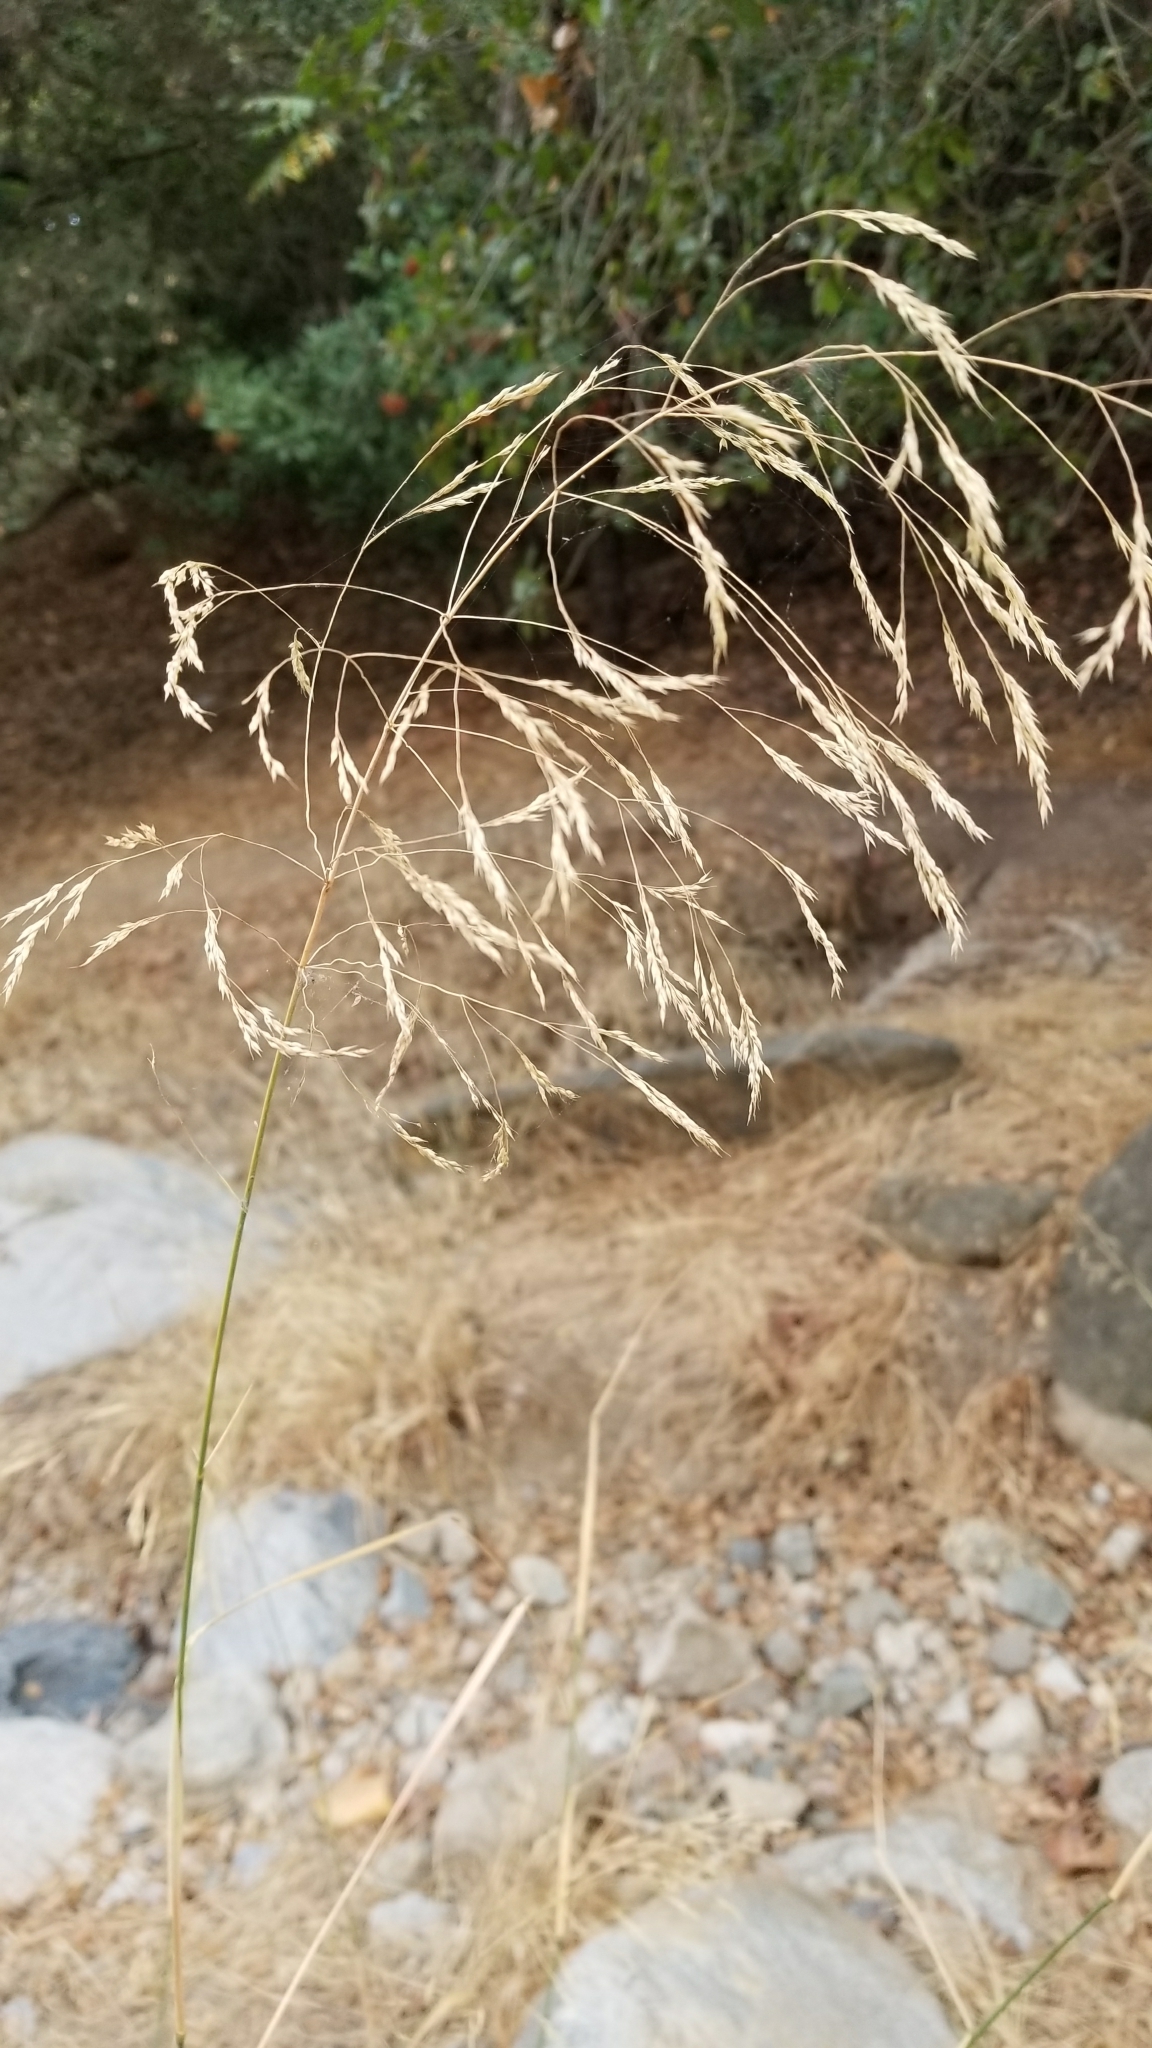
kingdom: Plantae
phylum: Tracheophyta
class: Liliopsida
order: Poales
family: Poaceae
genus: Oloptum
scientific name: Oloptum miliaceum
